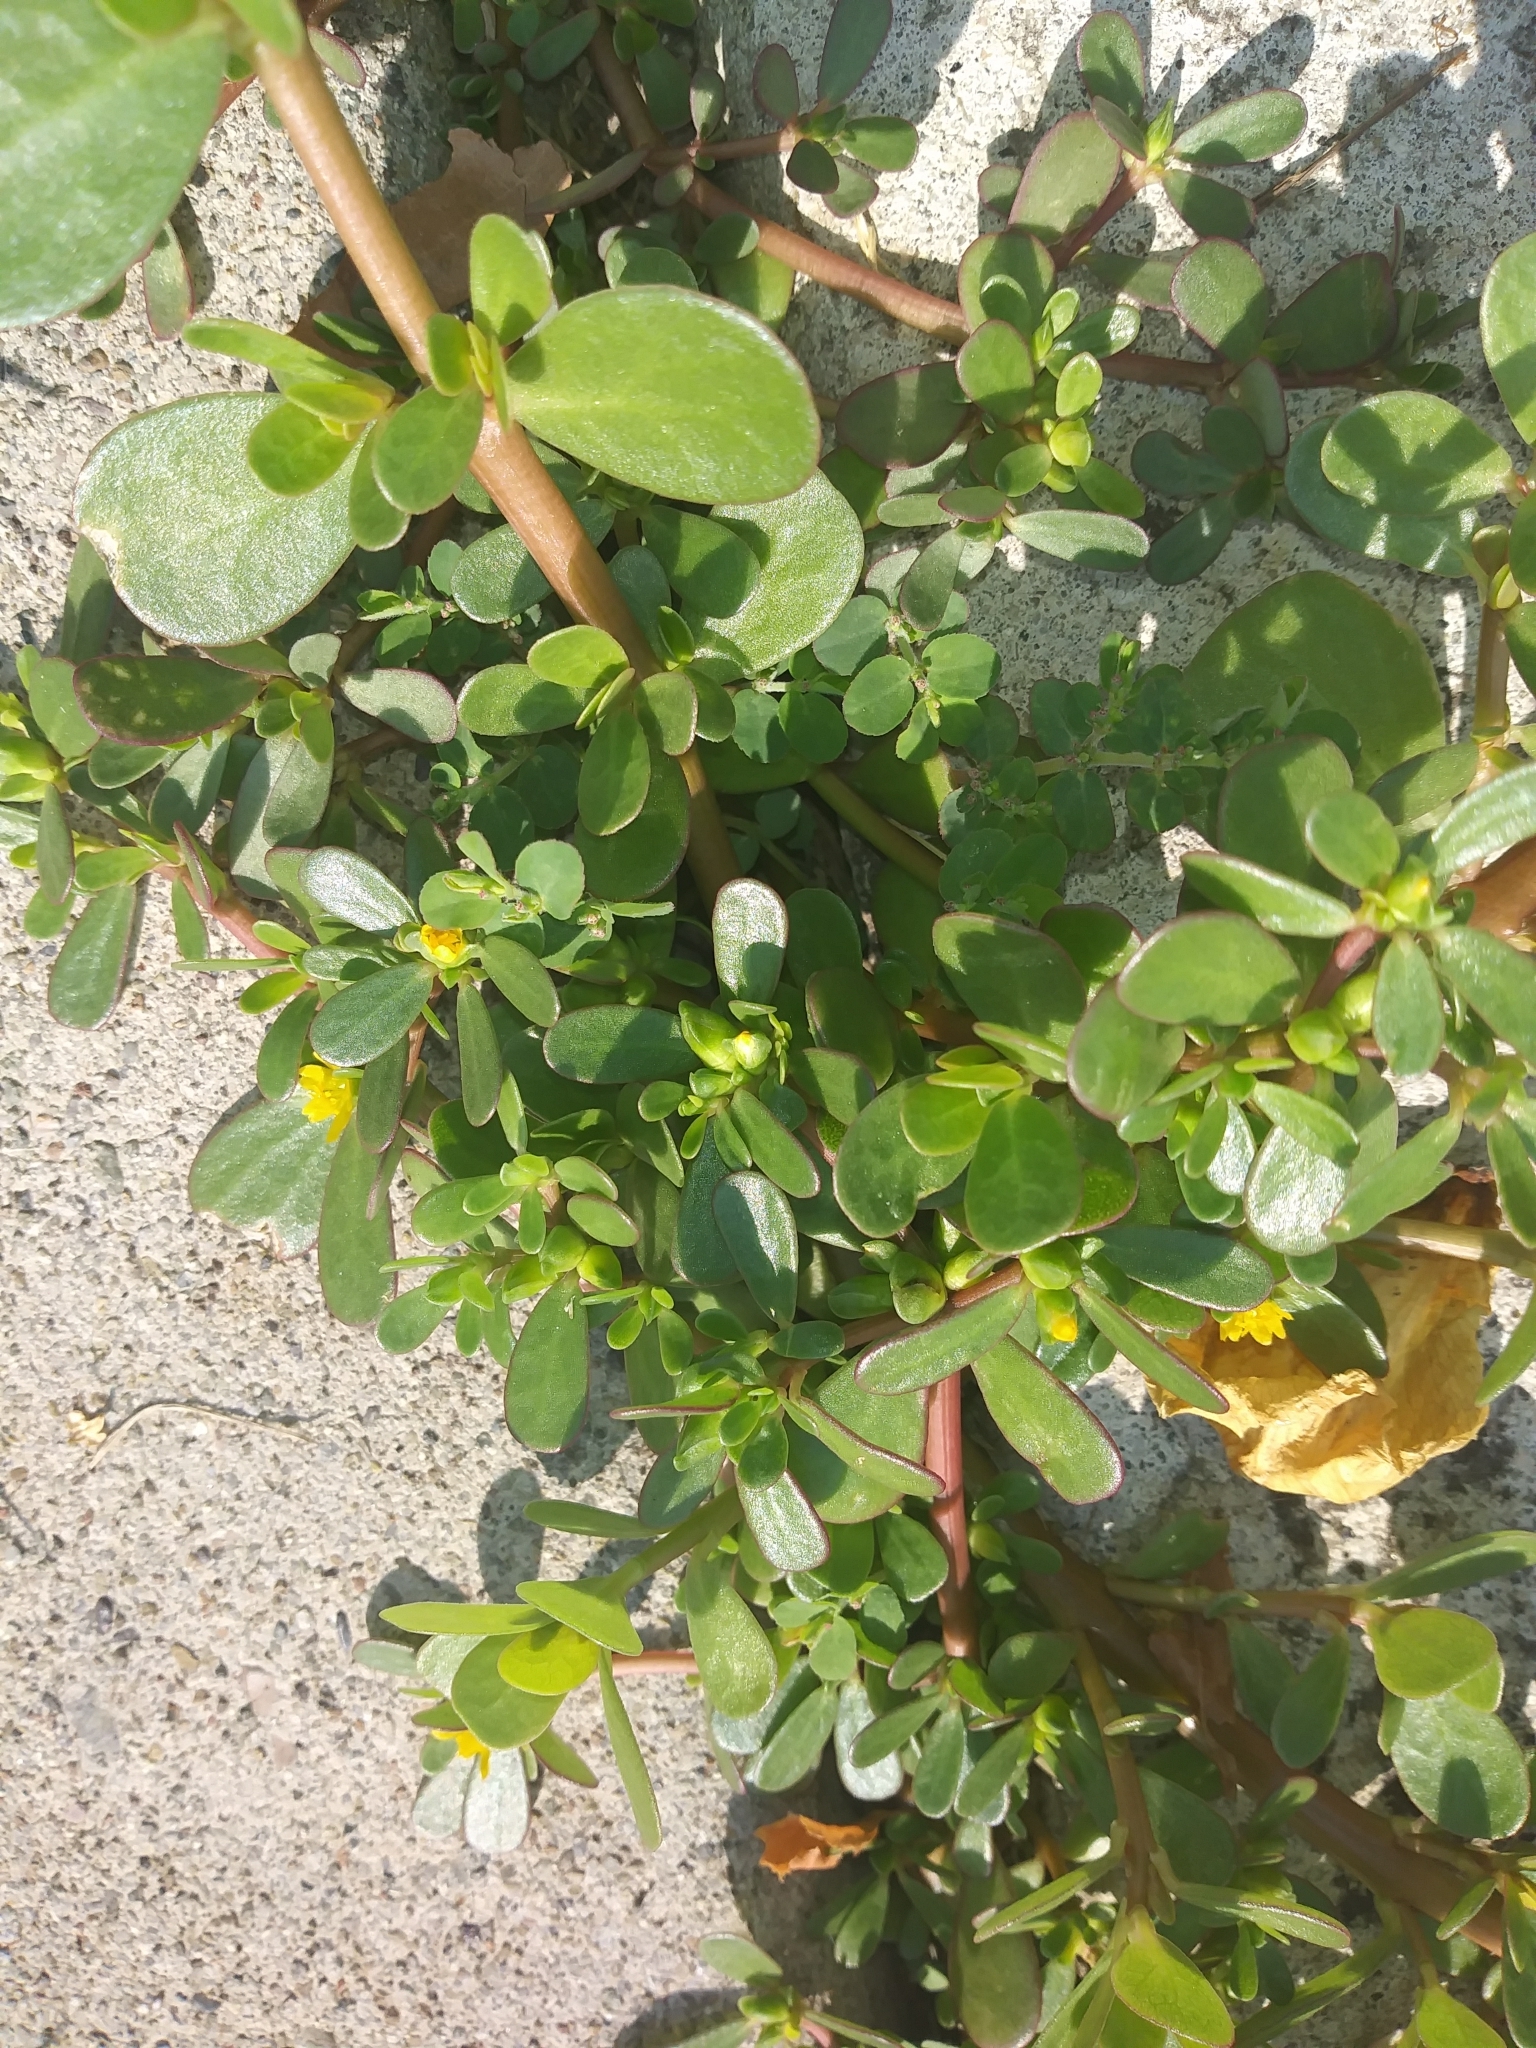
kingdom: Plantae
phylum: Tracheophyta
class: Magnoliopsida
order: Caryophyllales
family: Portulacaceae
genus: Portulaca
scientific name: Portulaca oleracea
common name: Common purslane
